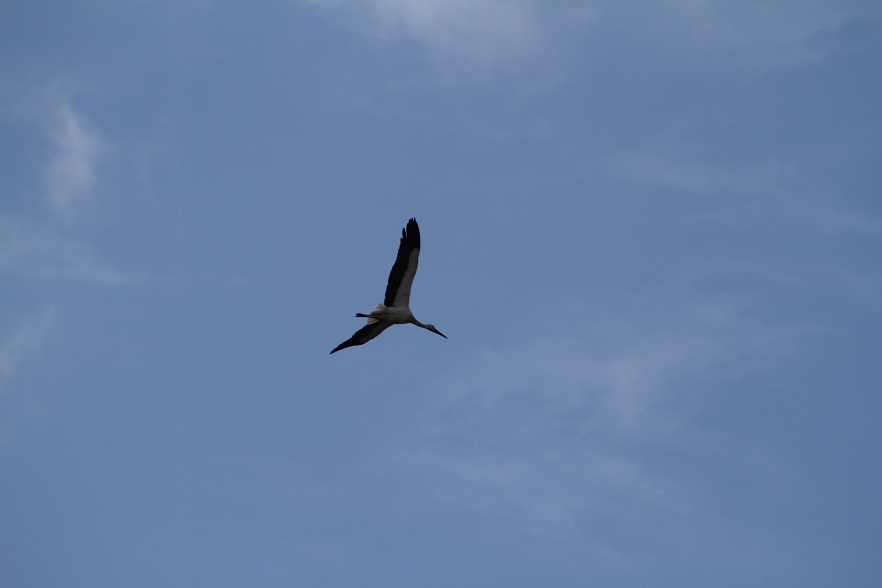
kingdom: Animalia
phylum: Chordata
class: Aves
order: Ciconiiformes
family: Ciconiidae
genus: Ciconia
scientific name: Ciconia ciconia
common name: White stork
